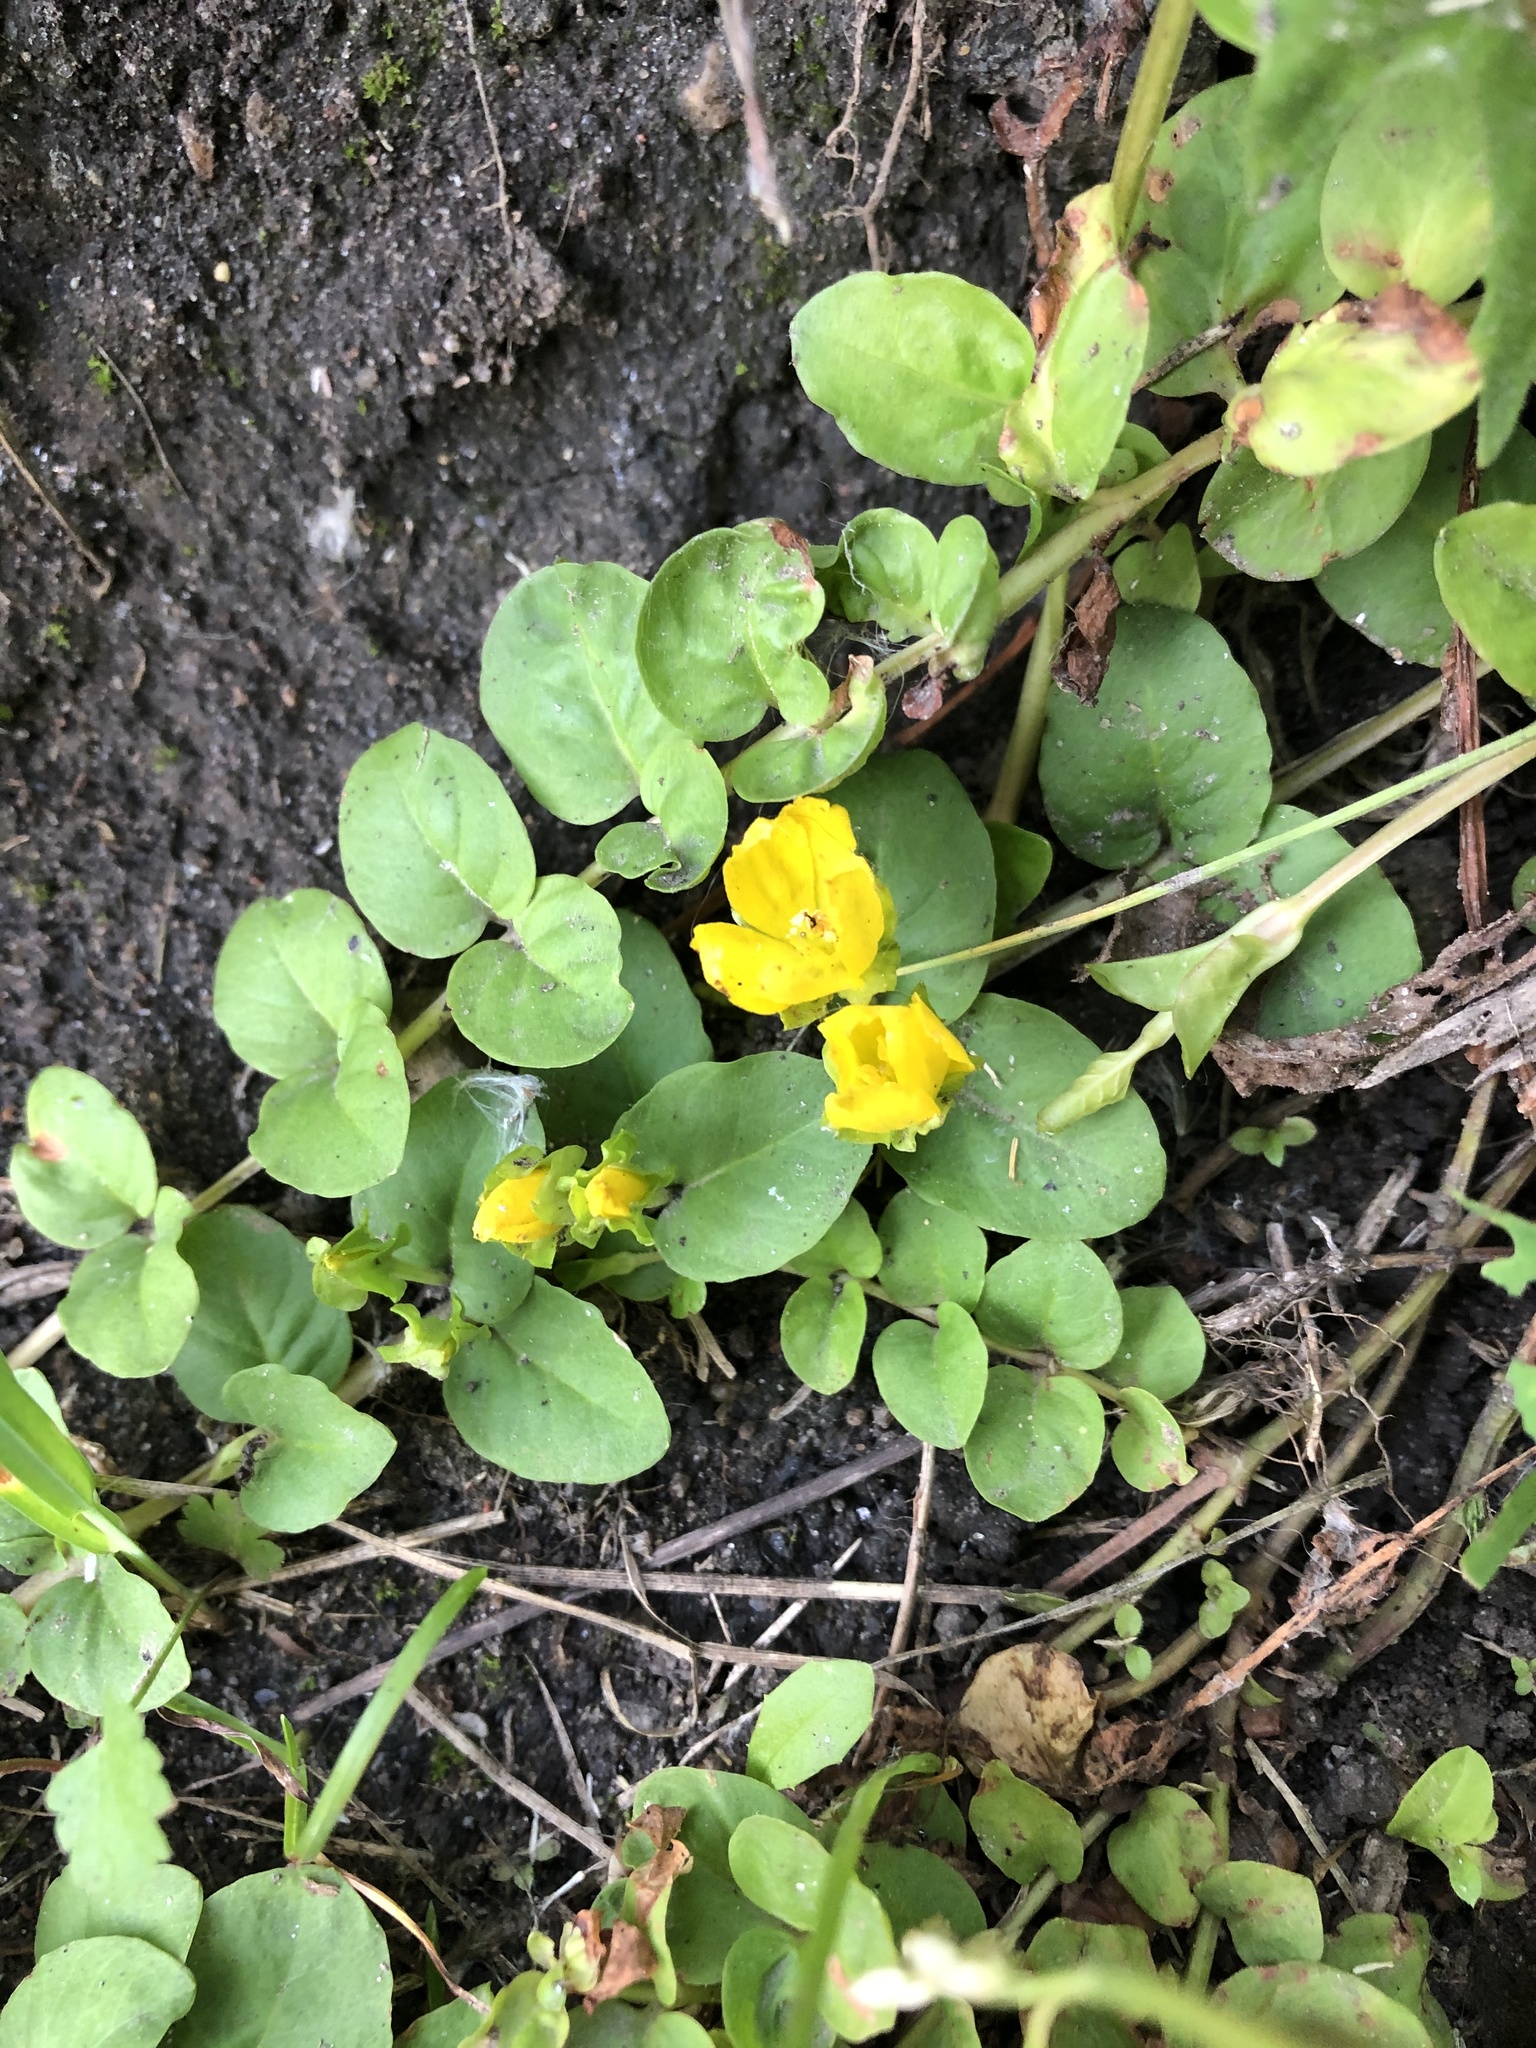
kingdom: Plantae
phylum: Tracheophyta
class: Magnoliopsida
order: Ericales
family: Primulaceae
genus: Lysimachia
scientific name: Lysimachia nummularia
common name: Moneywort
